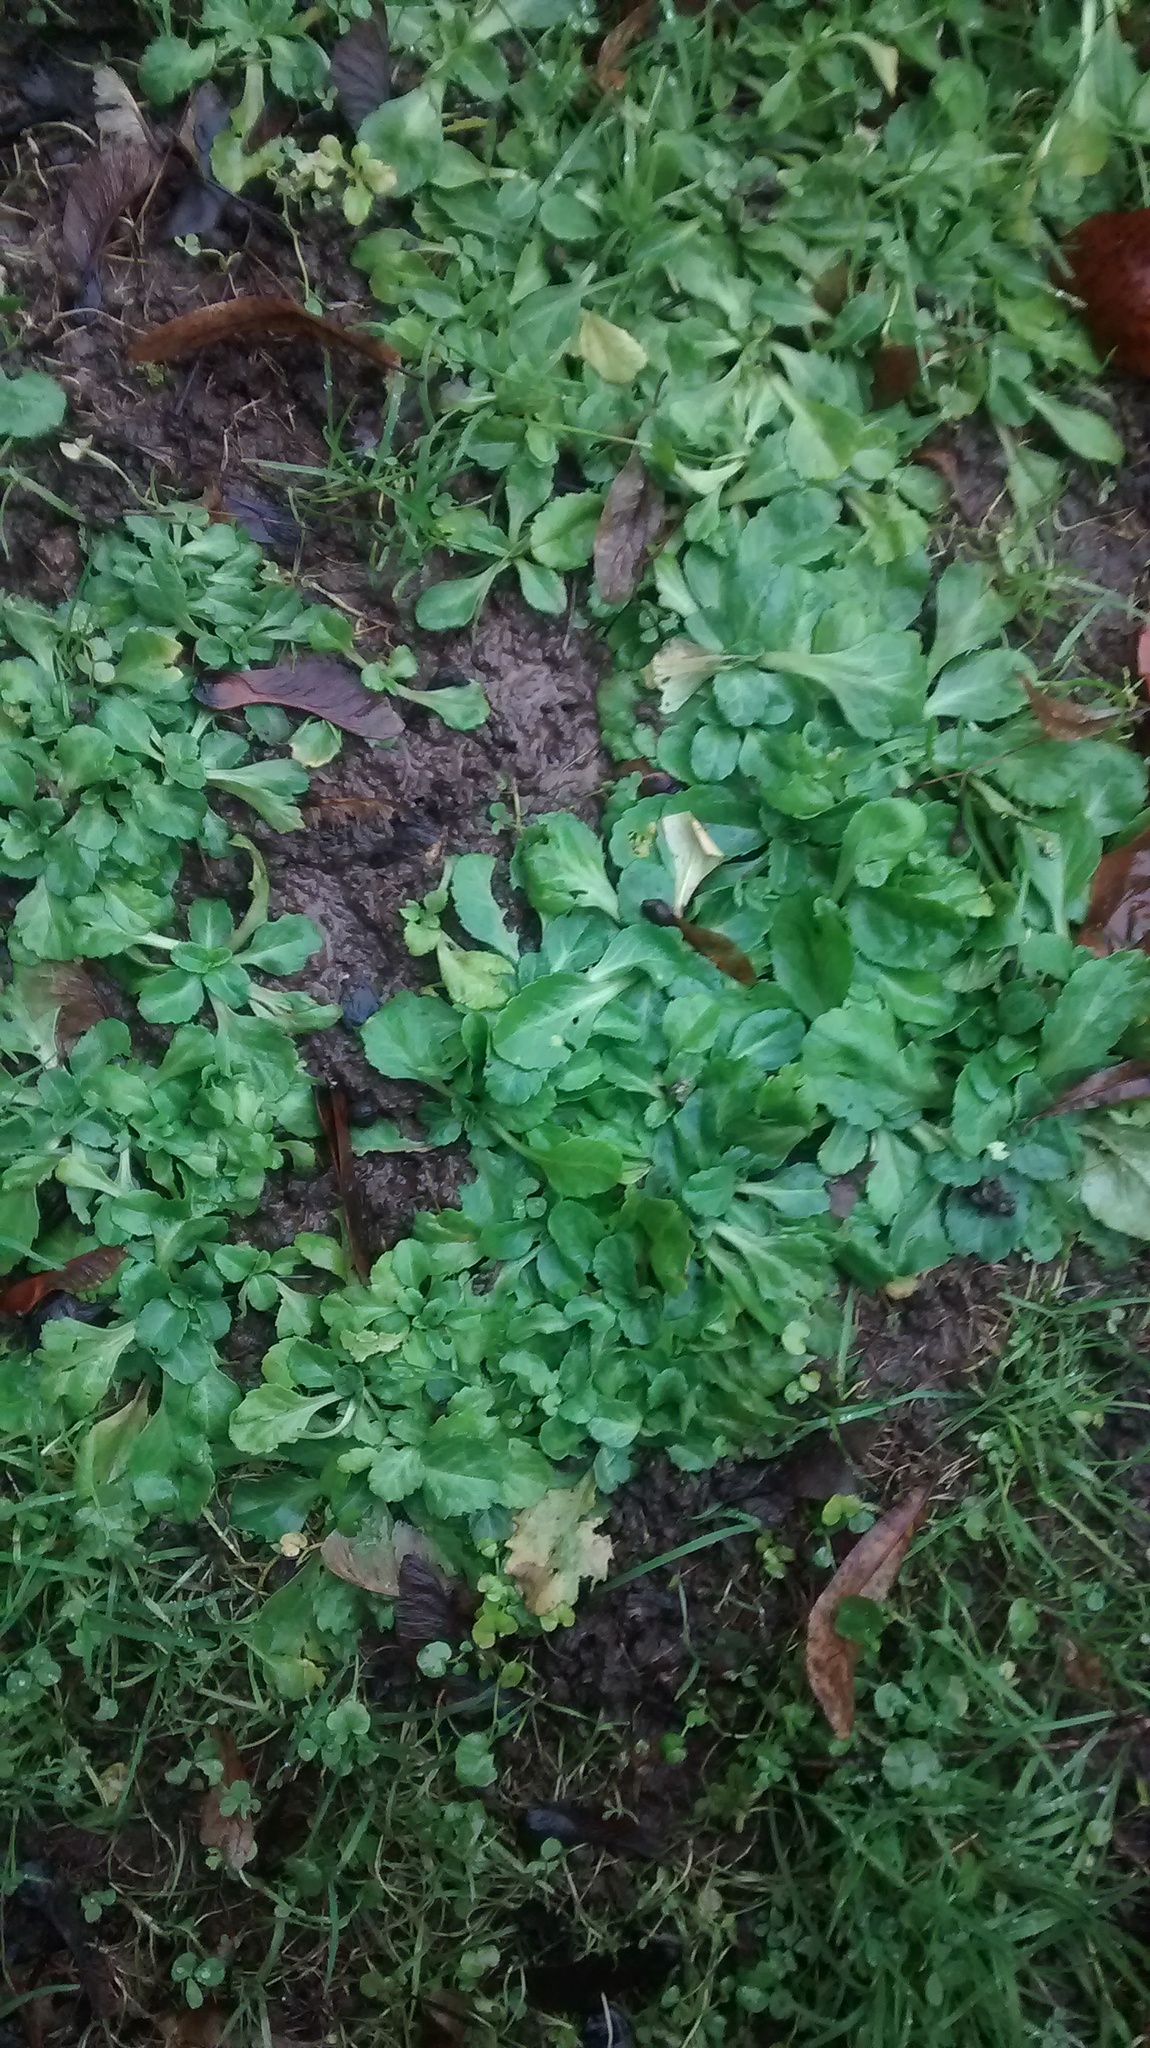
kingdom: Plantae
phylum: Tracheophyta
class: Magnoliopsida
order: Asterales
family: Asteraceae
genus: Bellis
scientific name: Bellis perennis
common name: Lawndaisy
